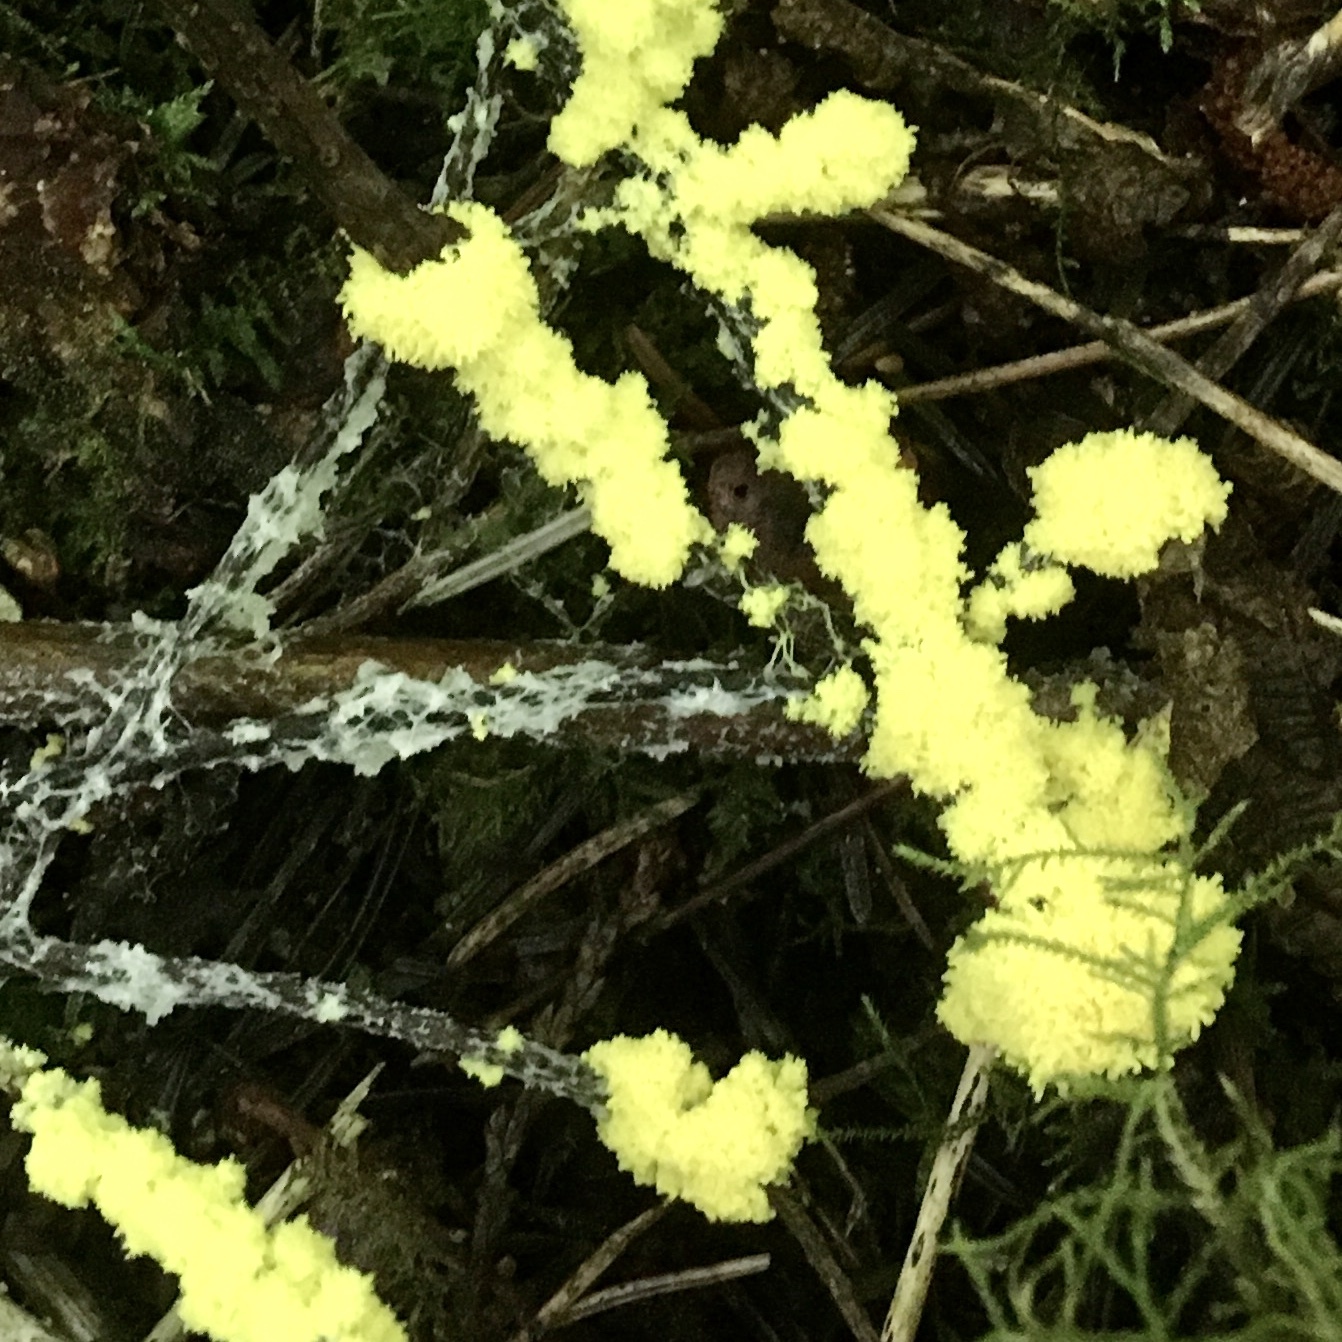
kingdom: Protozoa
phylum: Mycetozoa
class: Myxomycetes
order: Physarales
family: Physaraceae
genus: Fuligo
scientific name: Fuligo septica
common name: Dog vomit slime mold
